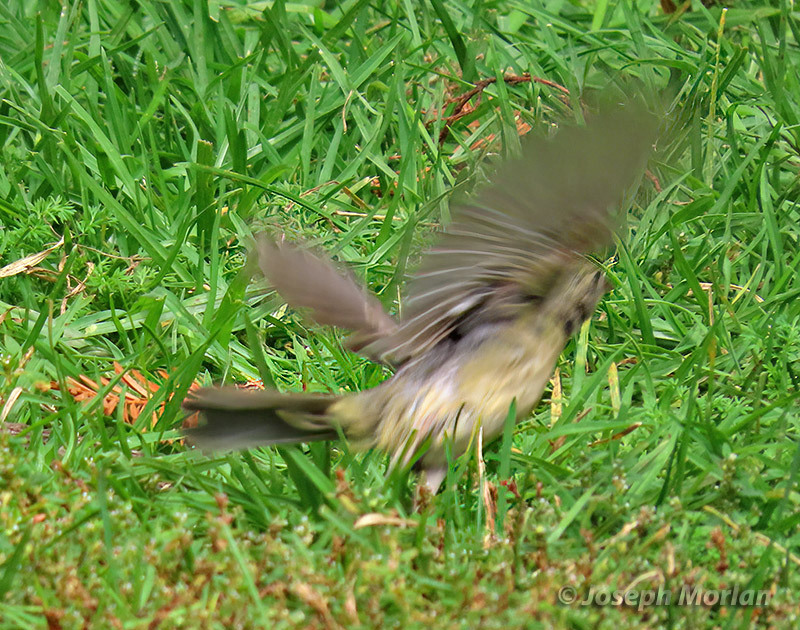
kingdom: Animalia
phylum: Chordata
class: Aves
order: Passeriformes
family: Cardinalidae
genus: Passerina
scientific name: Passerina ciris
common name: Painted bunting
